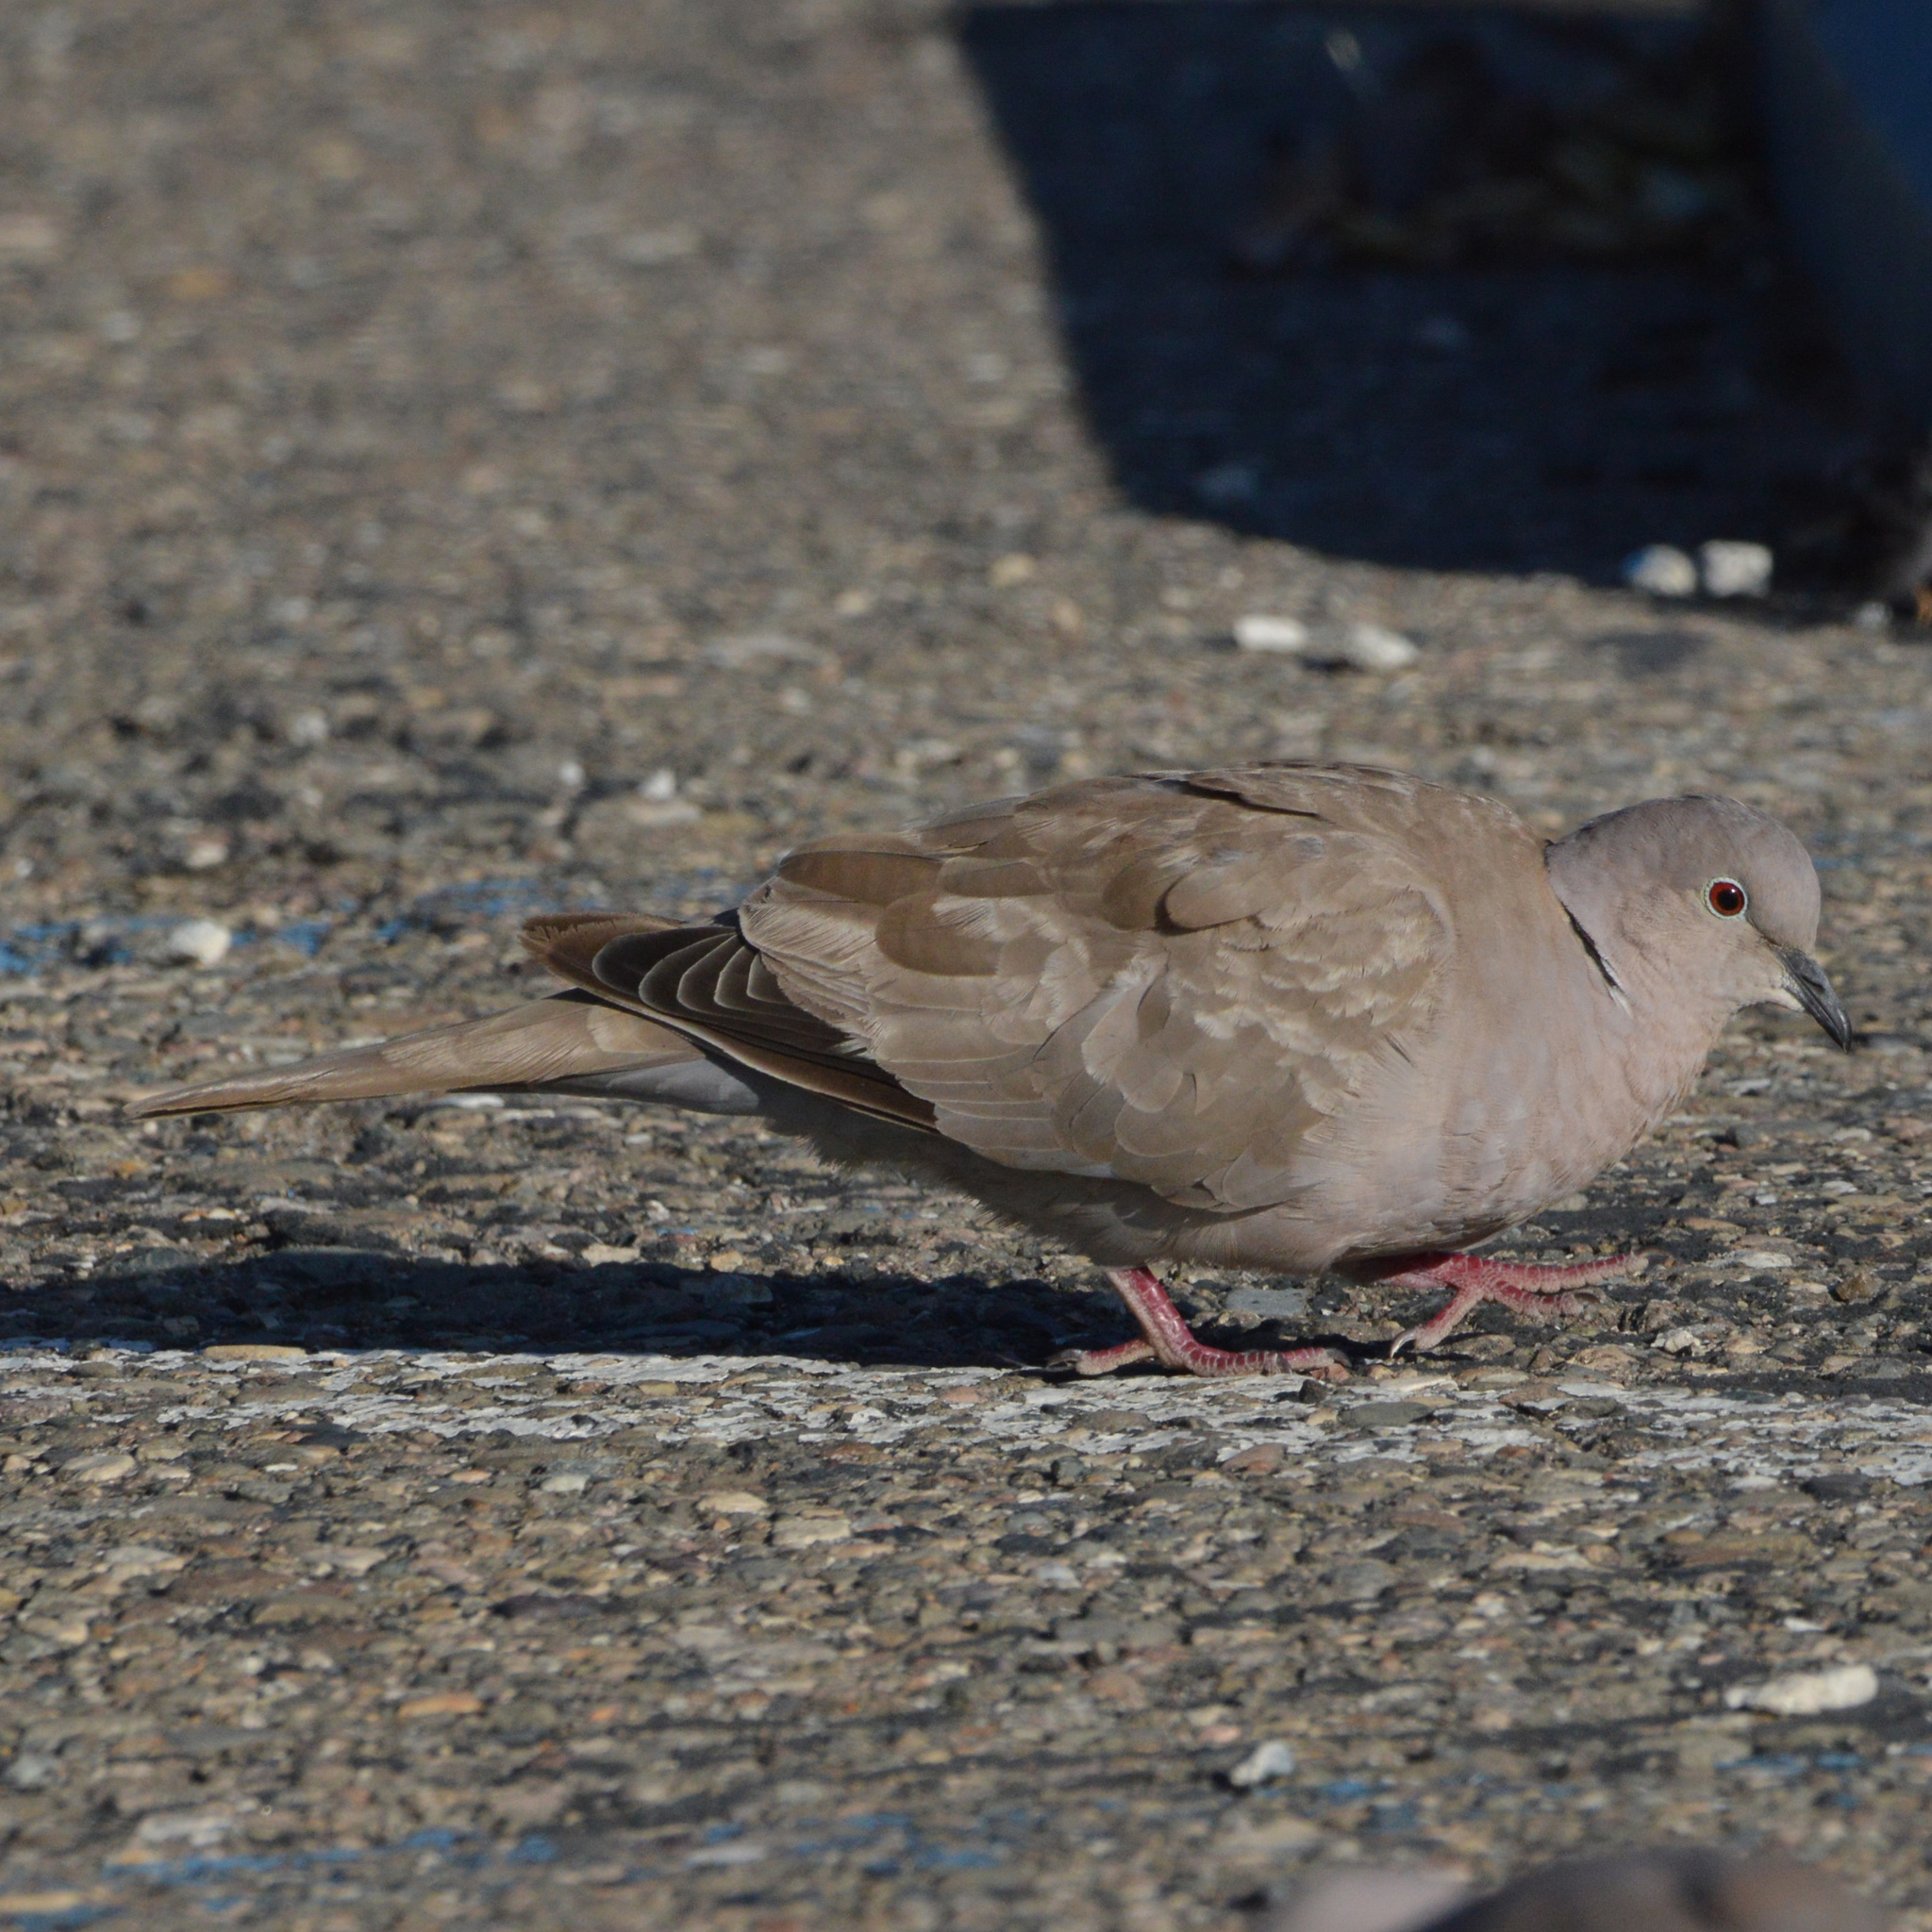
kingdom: Animalia
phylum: Chordata
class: Aves
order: Columbiformes
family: Columbidae
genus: Streptopelia
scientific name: Streptopelia decaocto
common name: Eurasian collared dove
